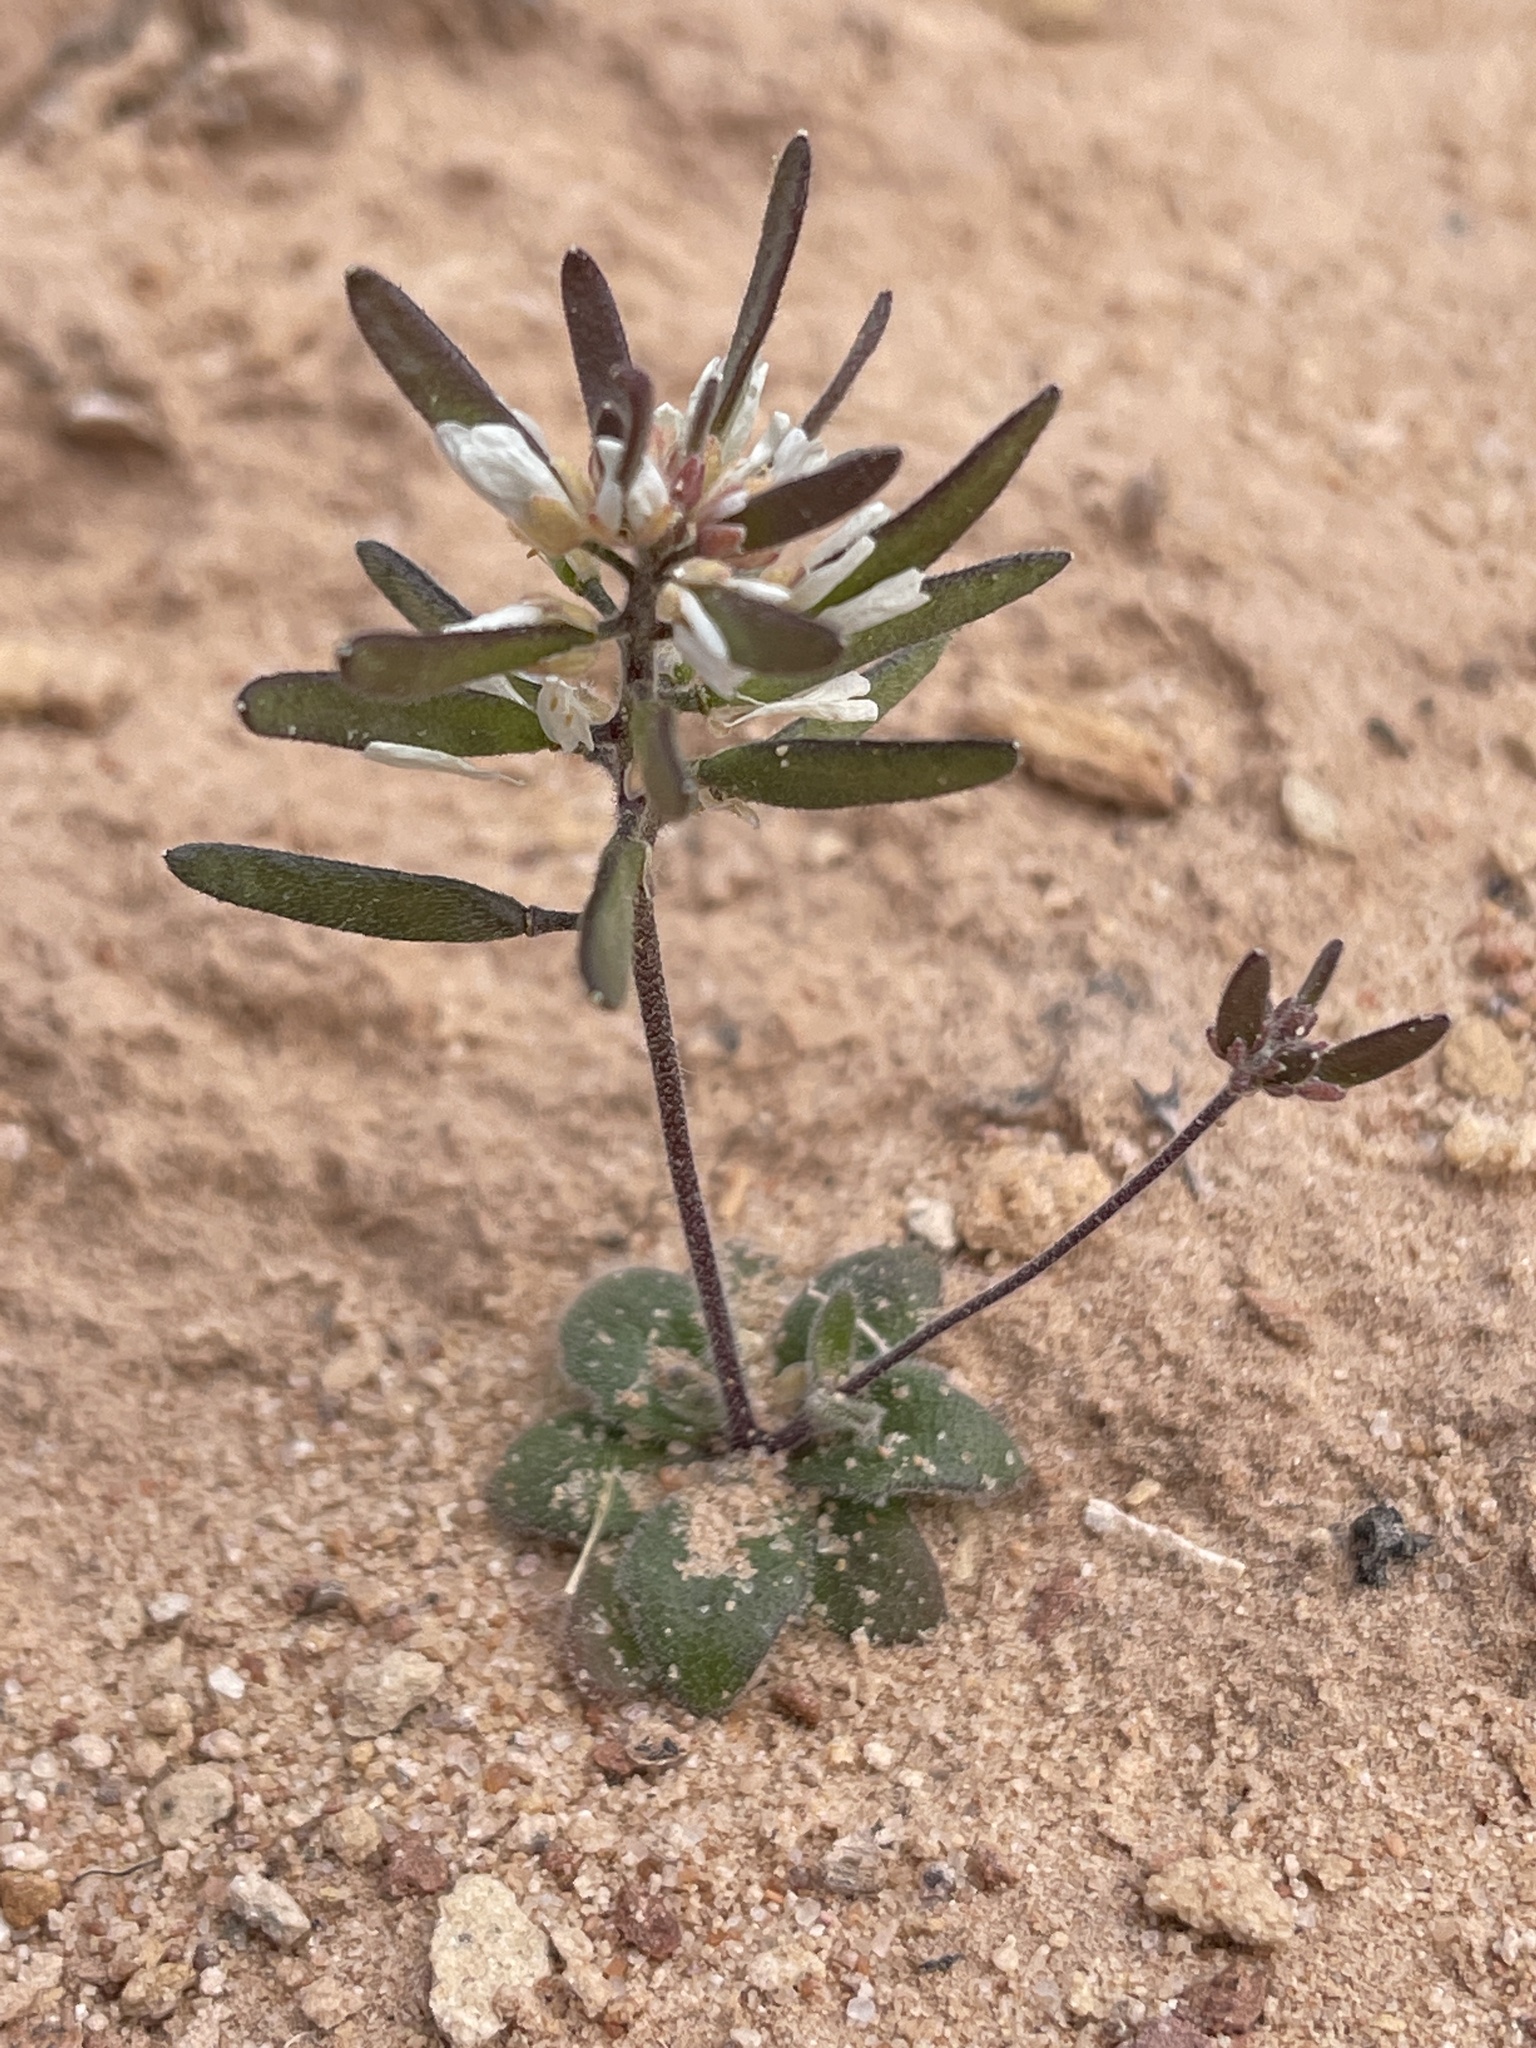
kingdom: Plantae
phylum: Tracheophyta
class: Magnoliopsida
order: Brassicales
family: Brassicaceae
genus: Tomostima
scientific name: Tomostima cuneifolia
